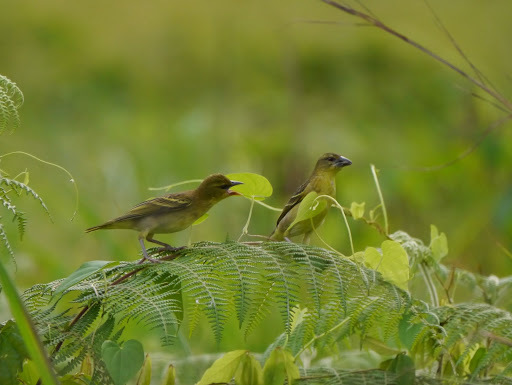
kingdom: Animalia
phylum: Chordata
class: Aves
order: Passeriformes
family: Ploceidae
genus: Ploceus
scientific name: Ploceus cucullatus
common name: Village weaver
